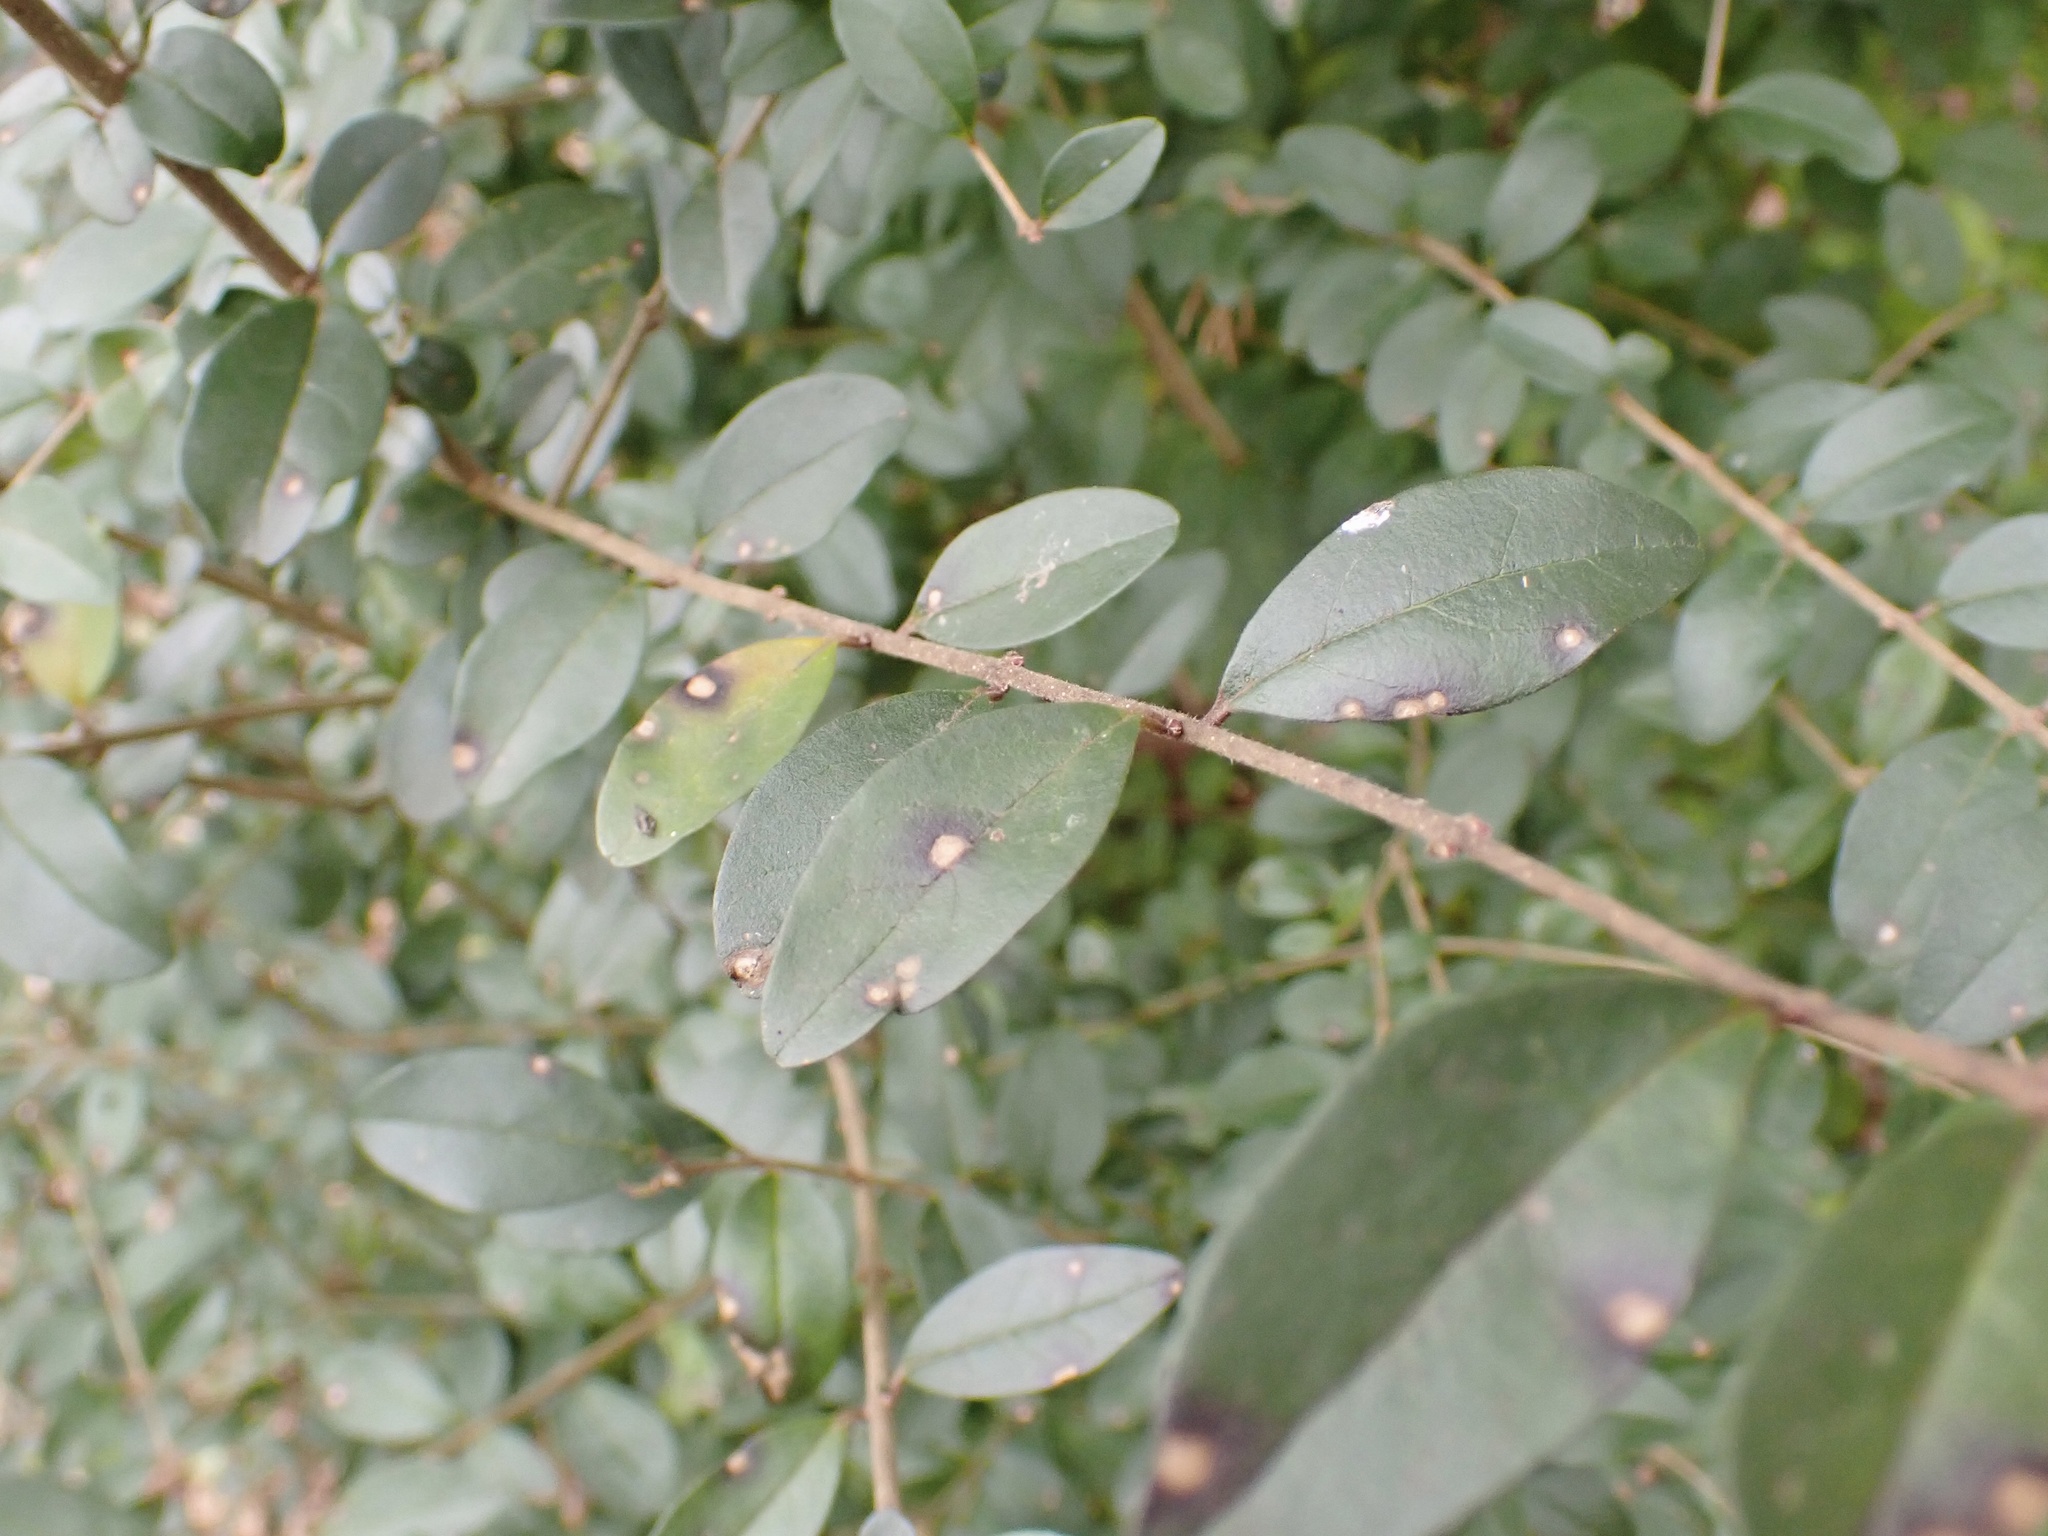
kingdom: Plantae
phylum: Tracheophyta
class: Magnoliopsida
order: Lamiales
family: Oleaceae
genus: Ligustrum
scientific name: Ligustrum sinense
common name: Chinese privet
